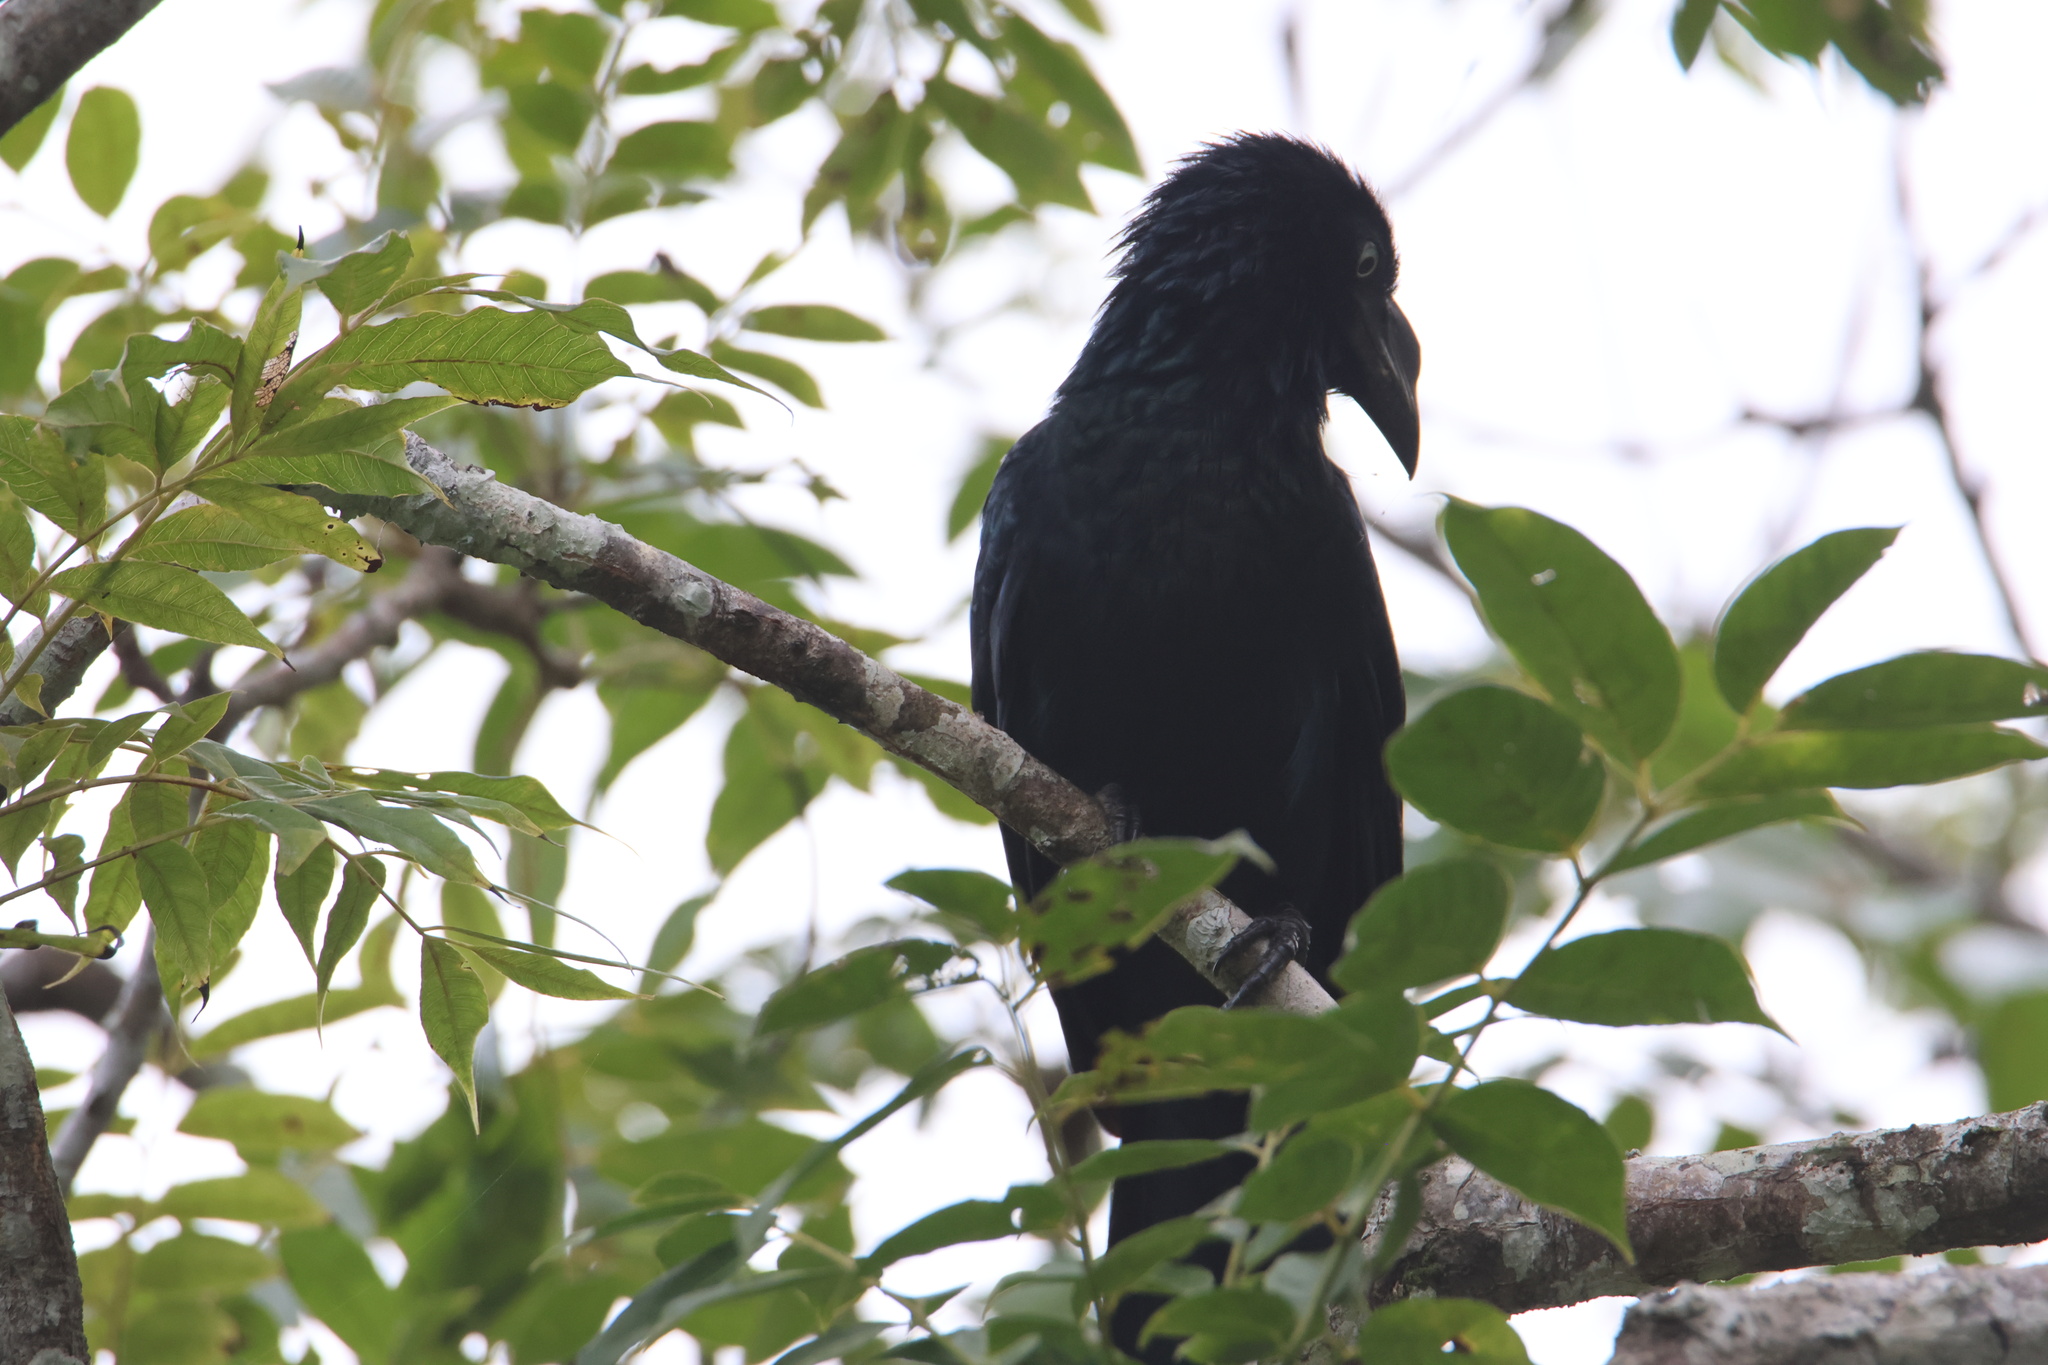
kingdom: Animalia
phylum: Chordata
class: Aves
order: Cuculiformes
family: Cuculidae
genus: Crotophaga
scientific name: Crotophaga major
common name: Greater ani
